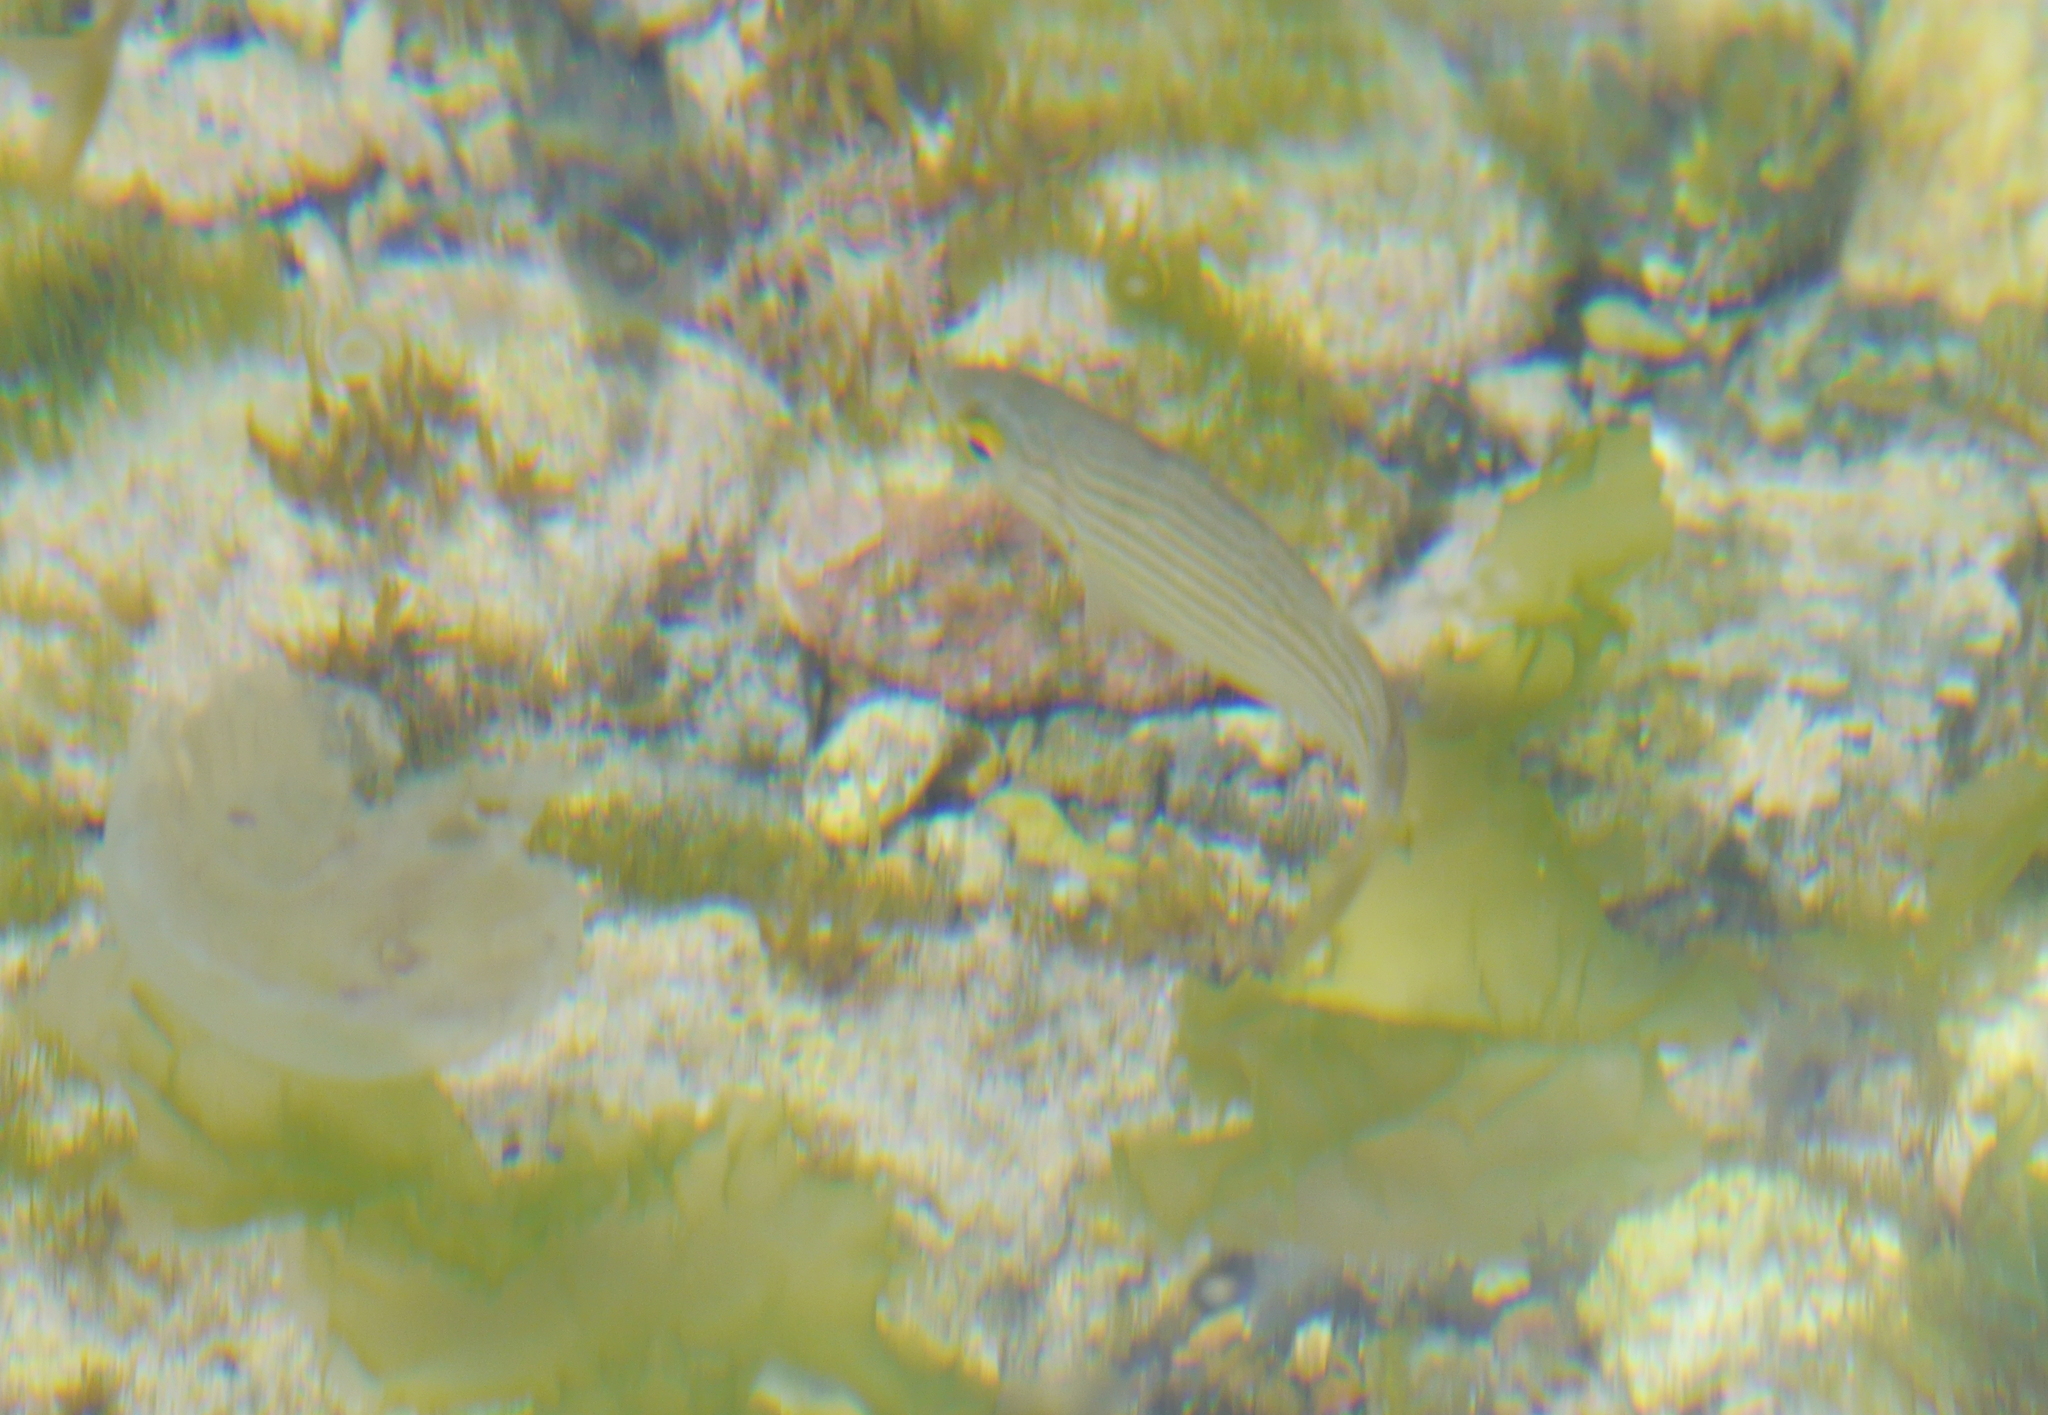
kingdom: Animalia
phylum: Chordata
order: Perciformes
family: Sparidae
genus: Sarpa
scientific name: Sarpa salpa
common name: Salema
